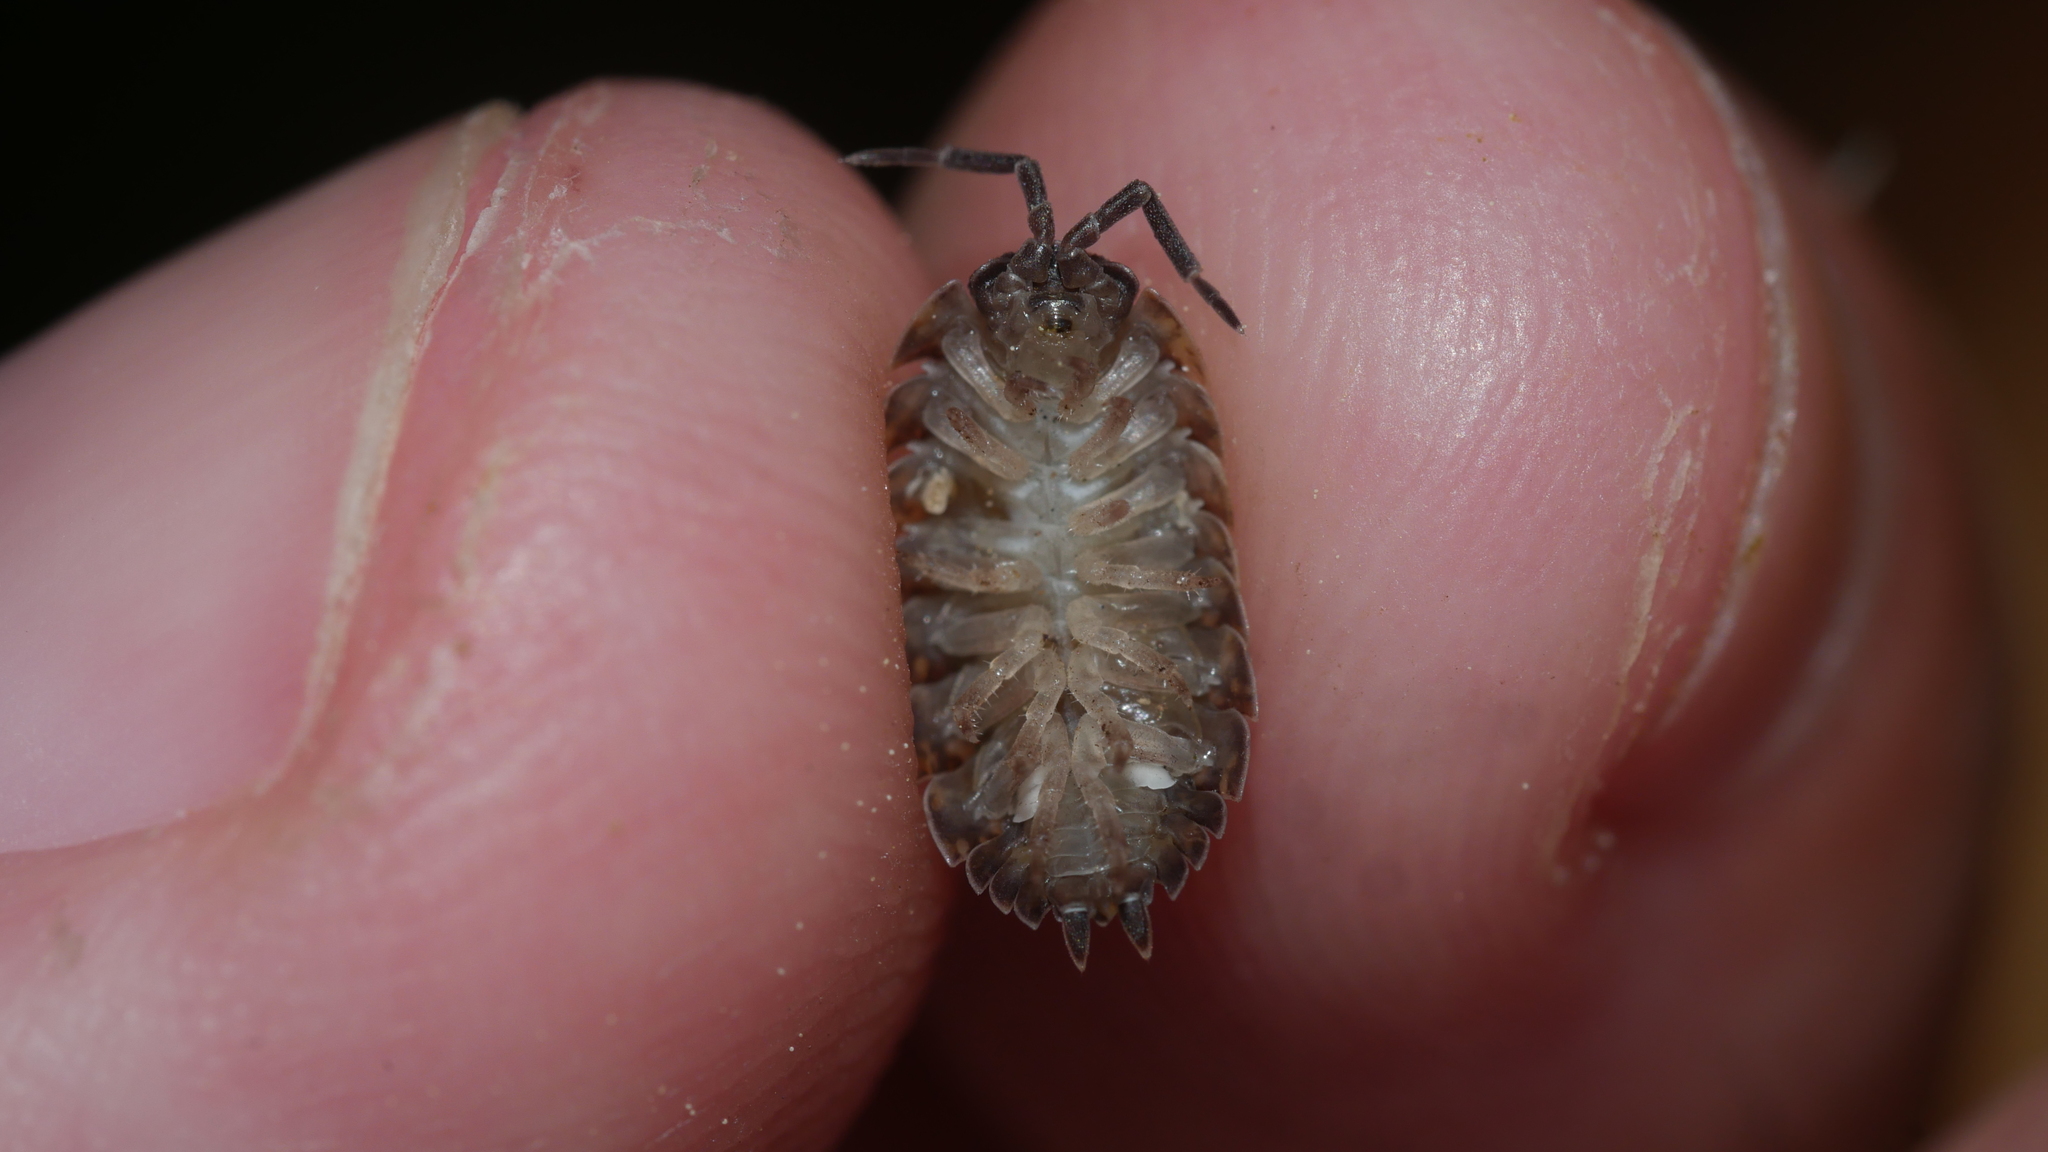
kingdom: Animalia
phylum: Arthropoda
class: Malacostraca
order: Isopoda
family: Porcellionidae
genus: Porcellio
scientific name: Porcellio scaber
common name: Common rough woodlouse
